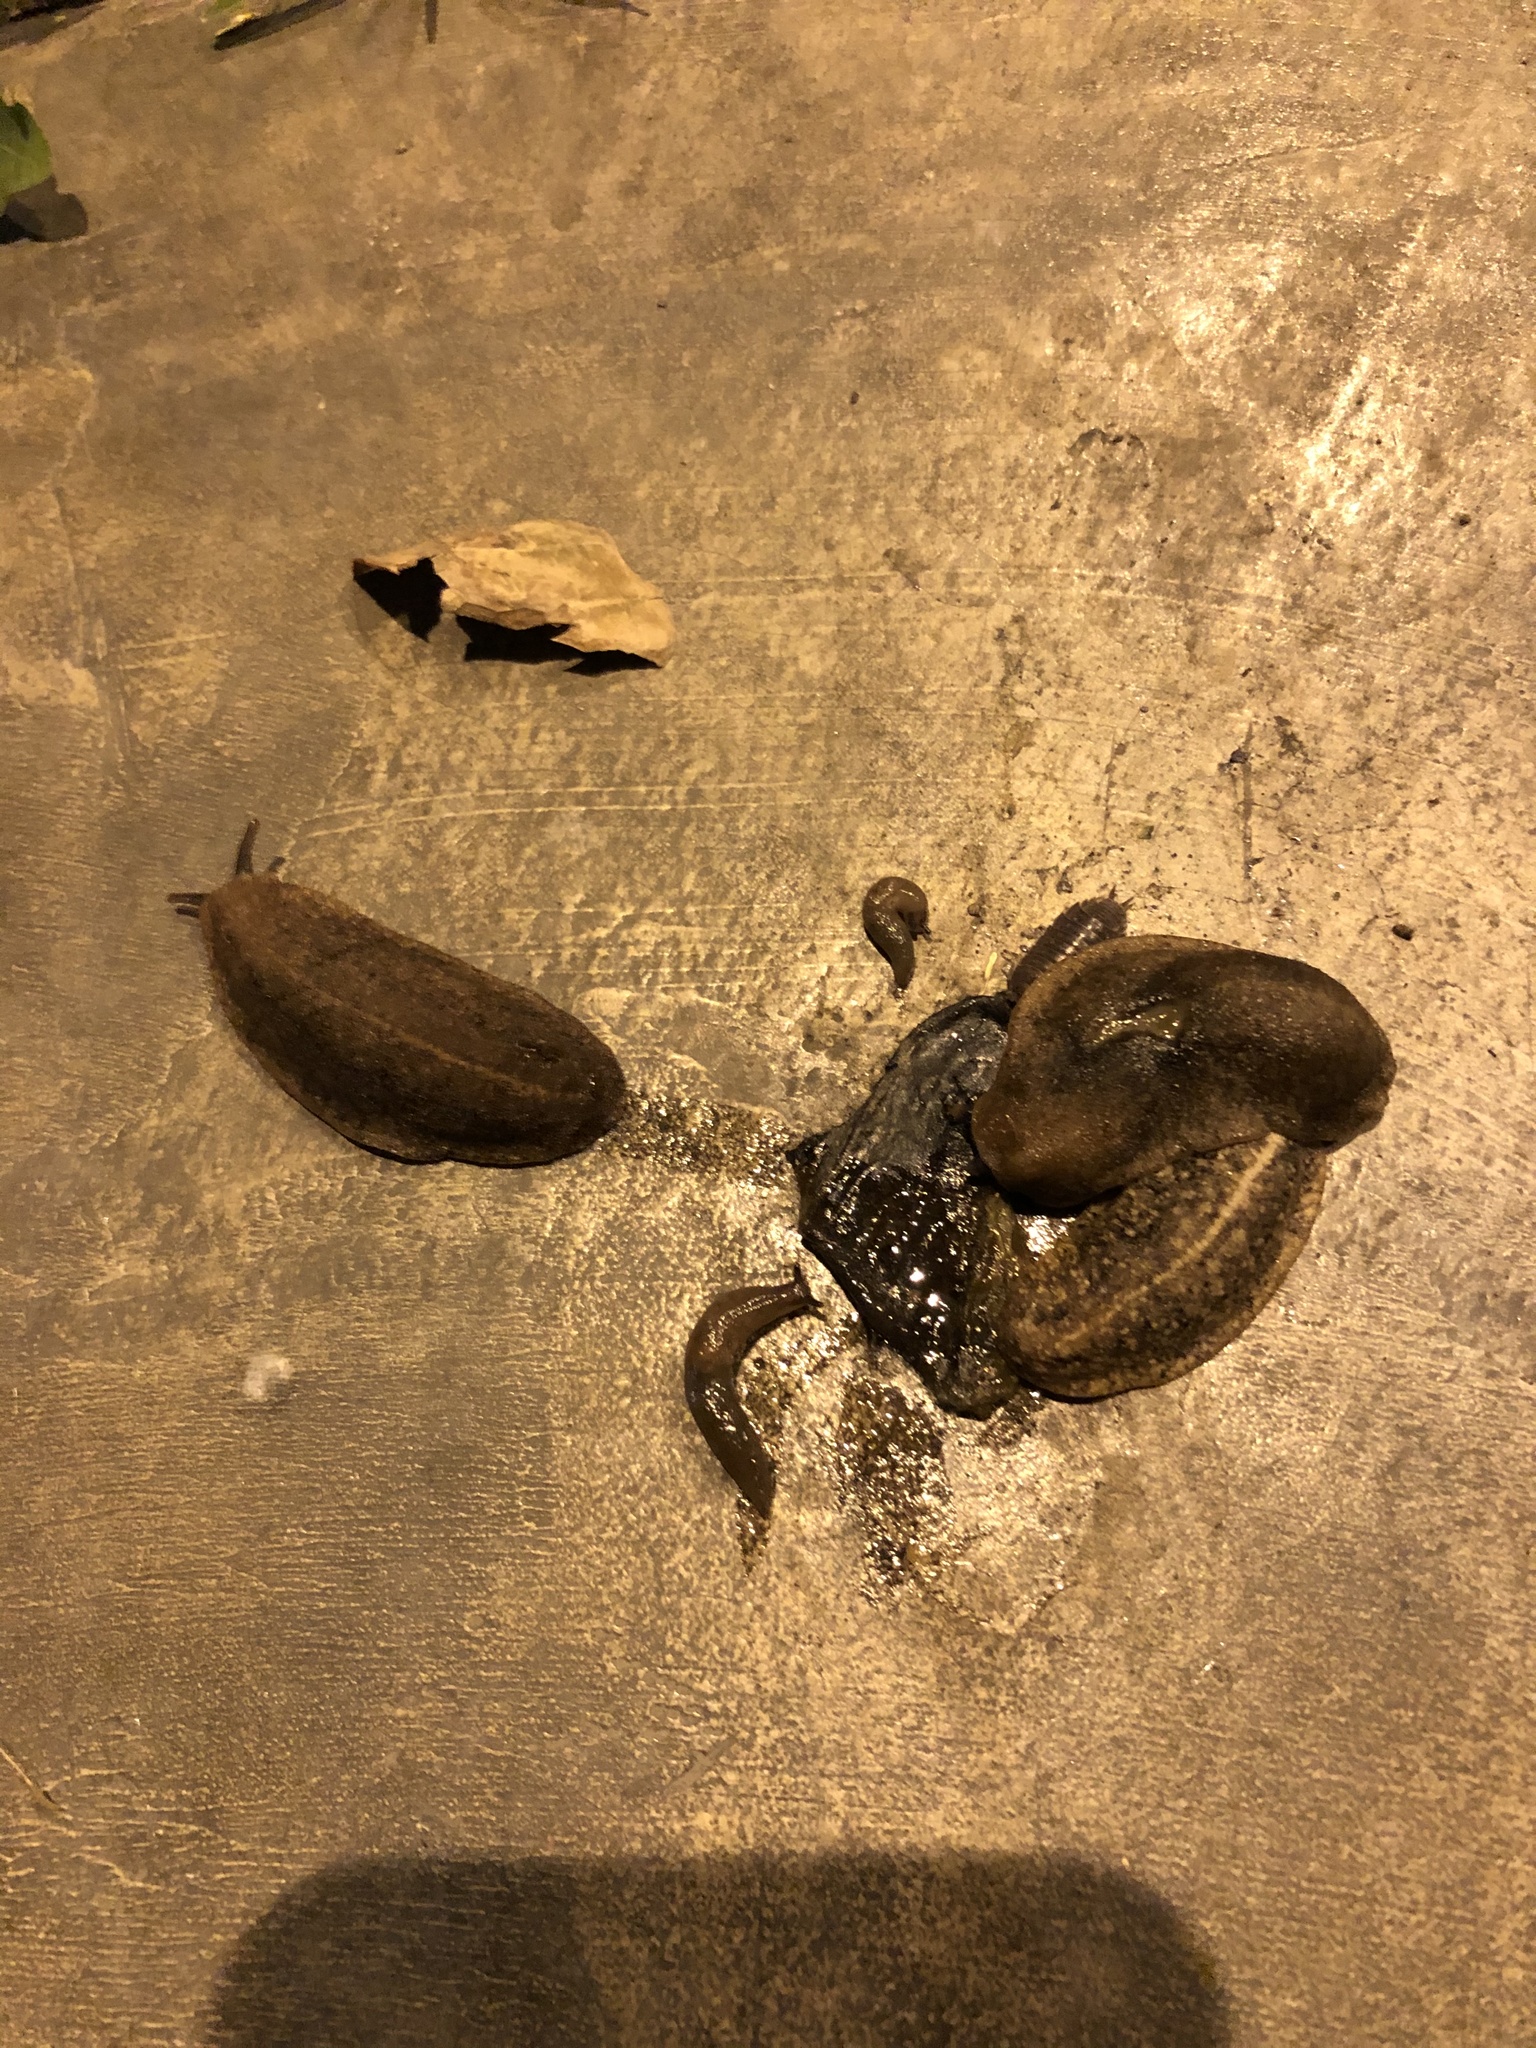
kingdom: Animalia
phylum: Mollusca
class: Gastropoda
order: Stylommatophora
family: Agriolimacidae
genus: Deroceras
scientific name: Deroceras laeve
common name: Marsh slug
